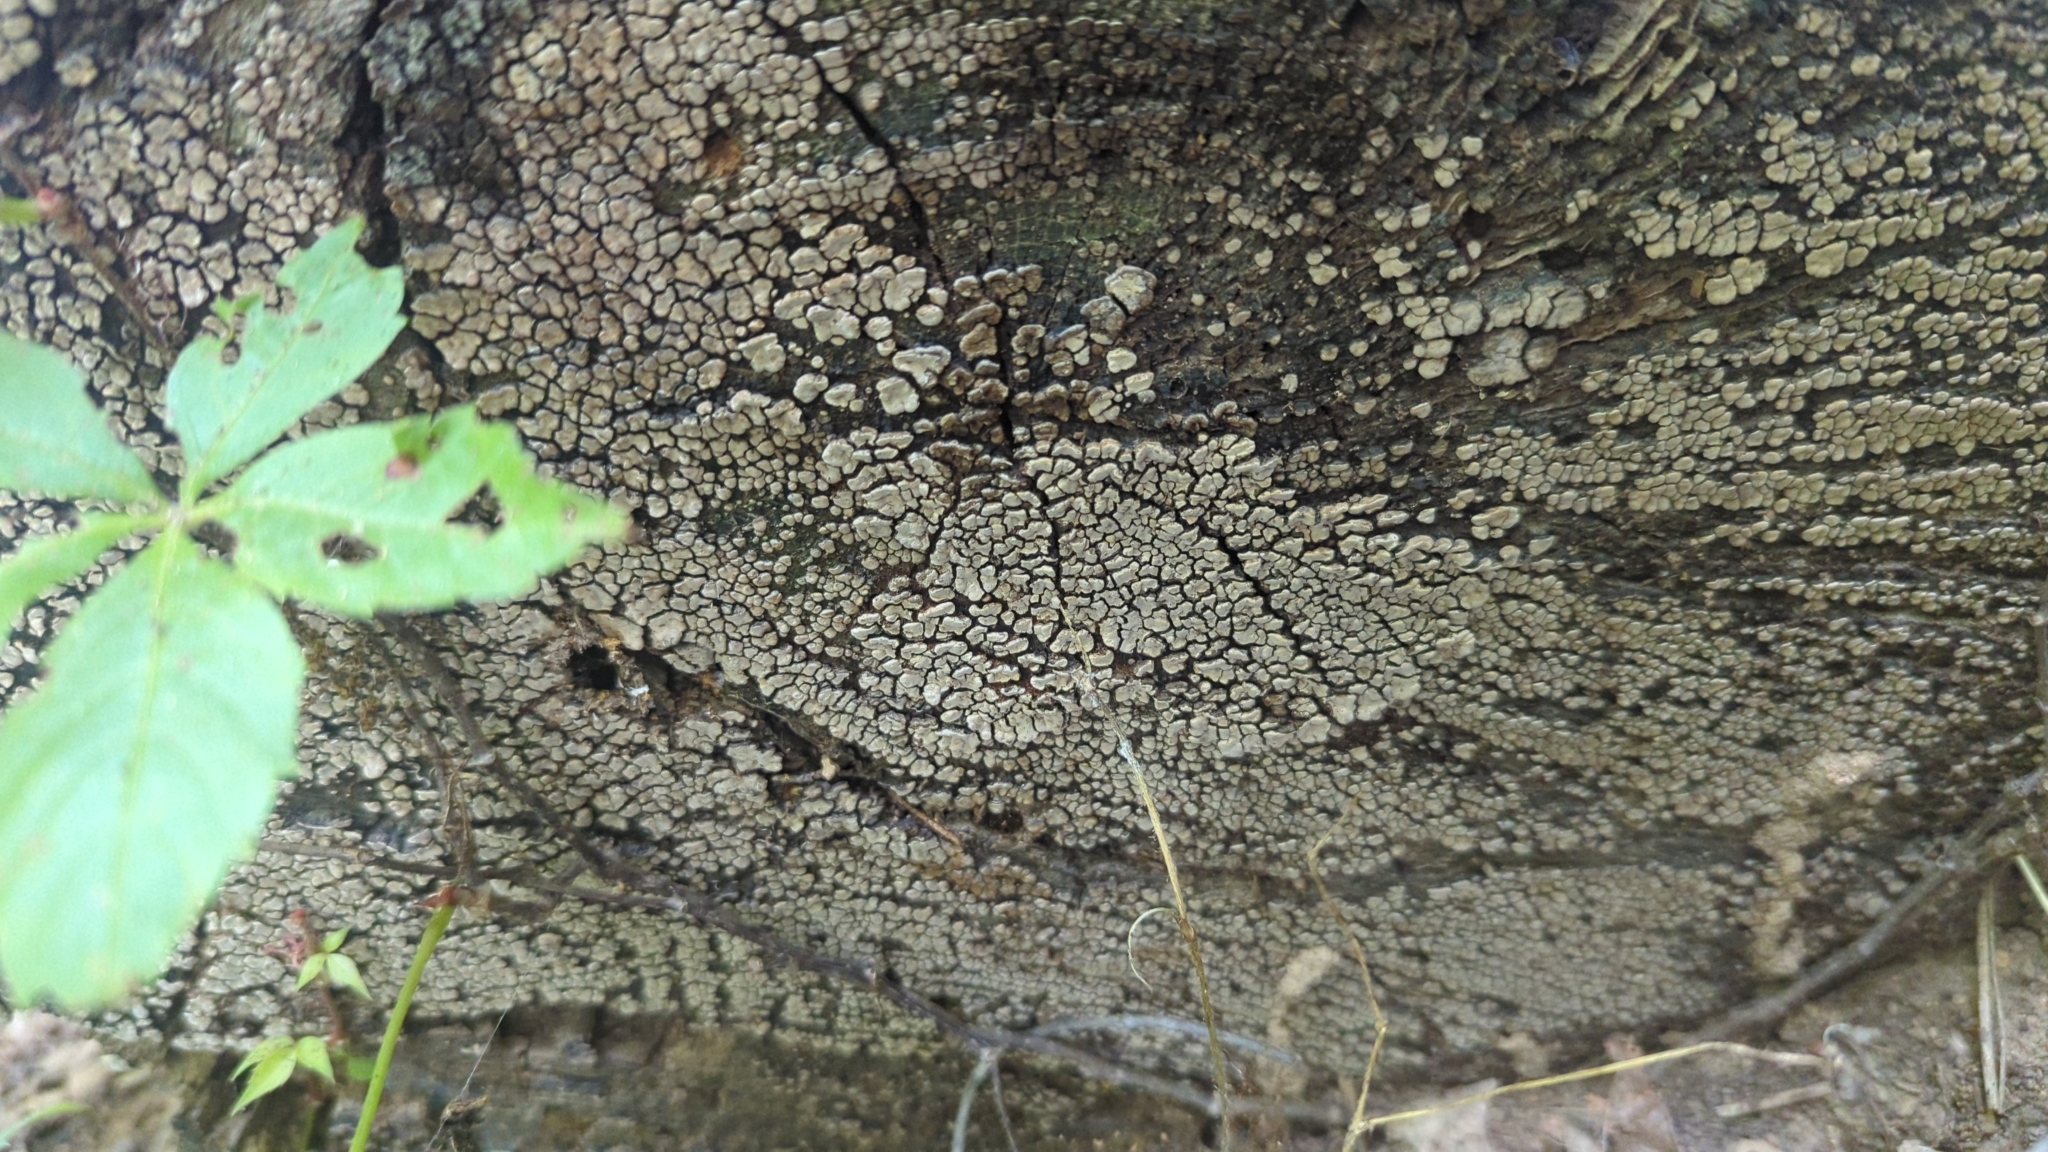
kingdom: Fungi
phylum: Basidiomycota
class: Agaricomycetes
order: Russulales
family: Stereaceae
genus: Xylobolus
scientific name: Xylobolus frustulatus
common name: Ceramic parchment
